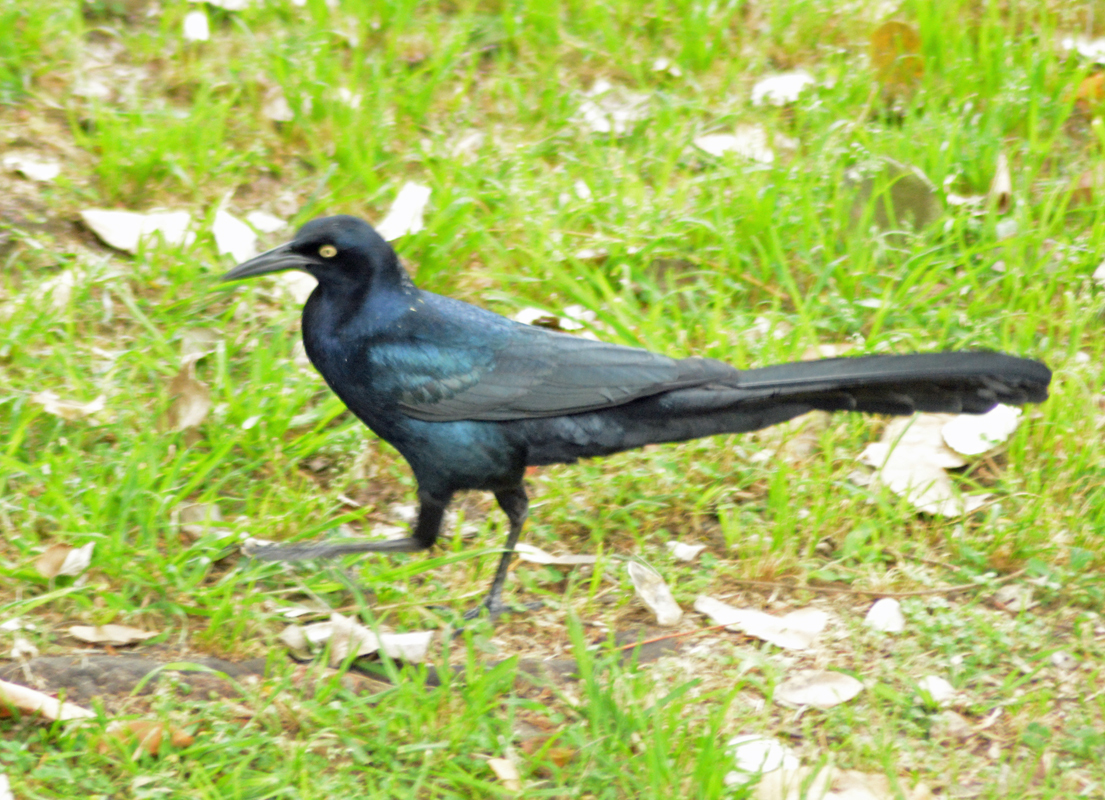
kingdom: Animalia
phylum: Chordata
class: Aves
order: Passeriformes
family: Icteridae
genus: Quiscalus
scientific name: Quiscalus mexicanus
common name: Great-tailed grackle
